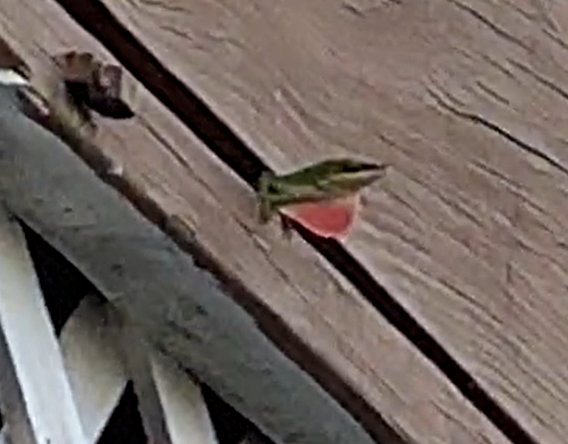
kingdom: Animalia
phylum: Chordata
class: Squamata
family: Dactyloidae
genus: Anolis
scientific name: Anolis carolinensis
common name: Green anole
